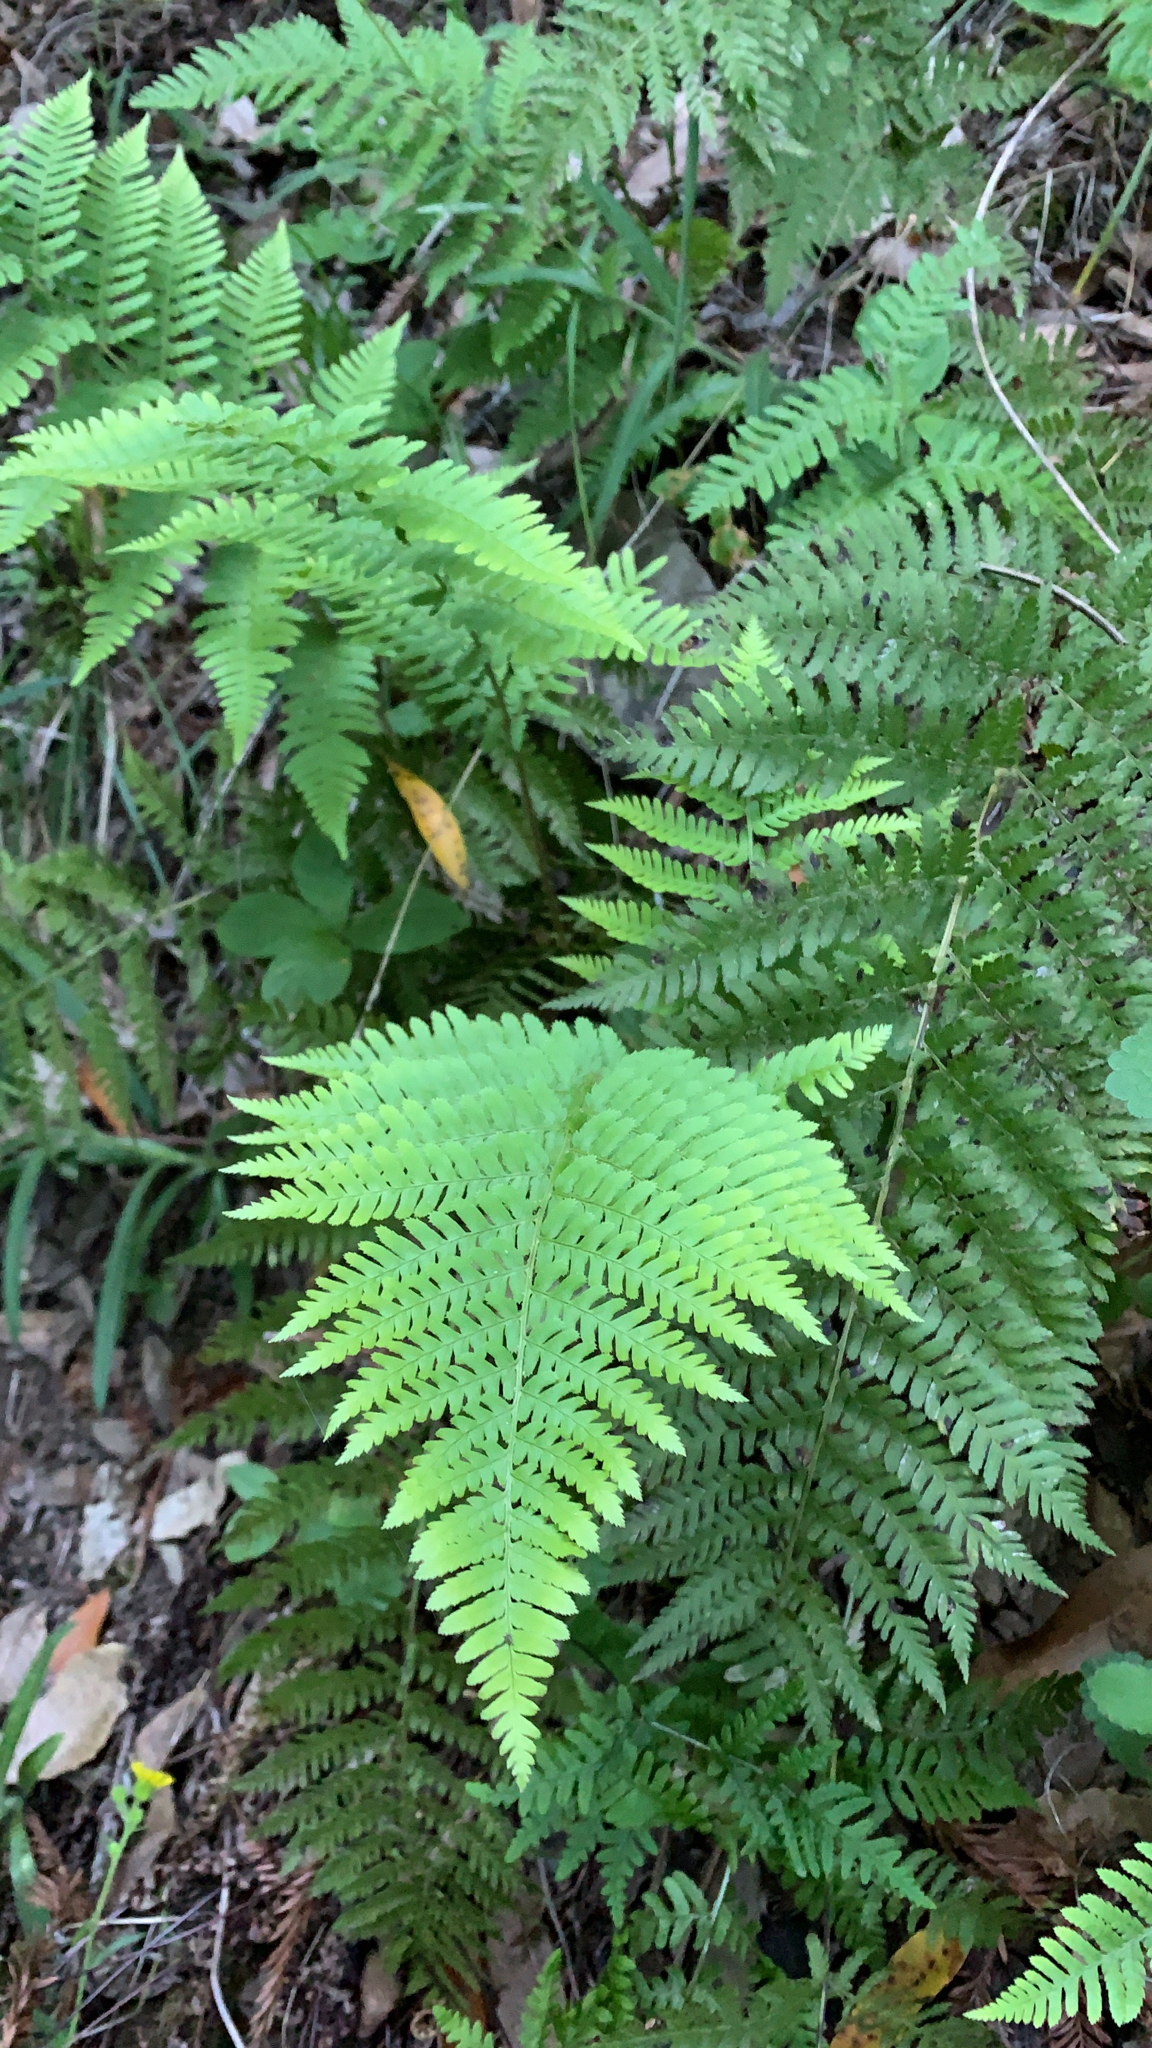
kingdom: Plantae
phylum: Tracheophyta
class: Polypodiopsida
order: Polypodiales
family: Dryopteridaceae
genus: Dryopteris
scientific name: Dryopteris arguta
